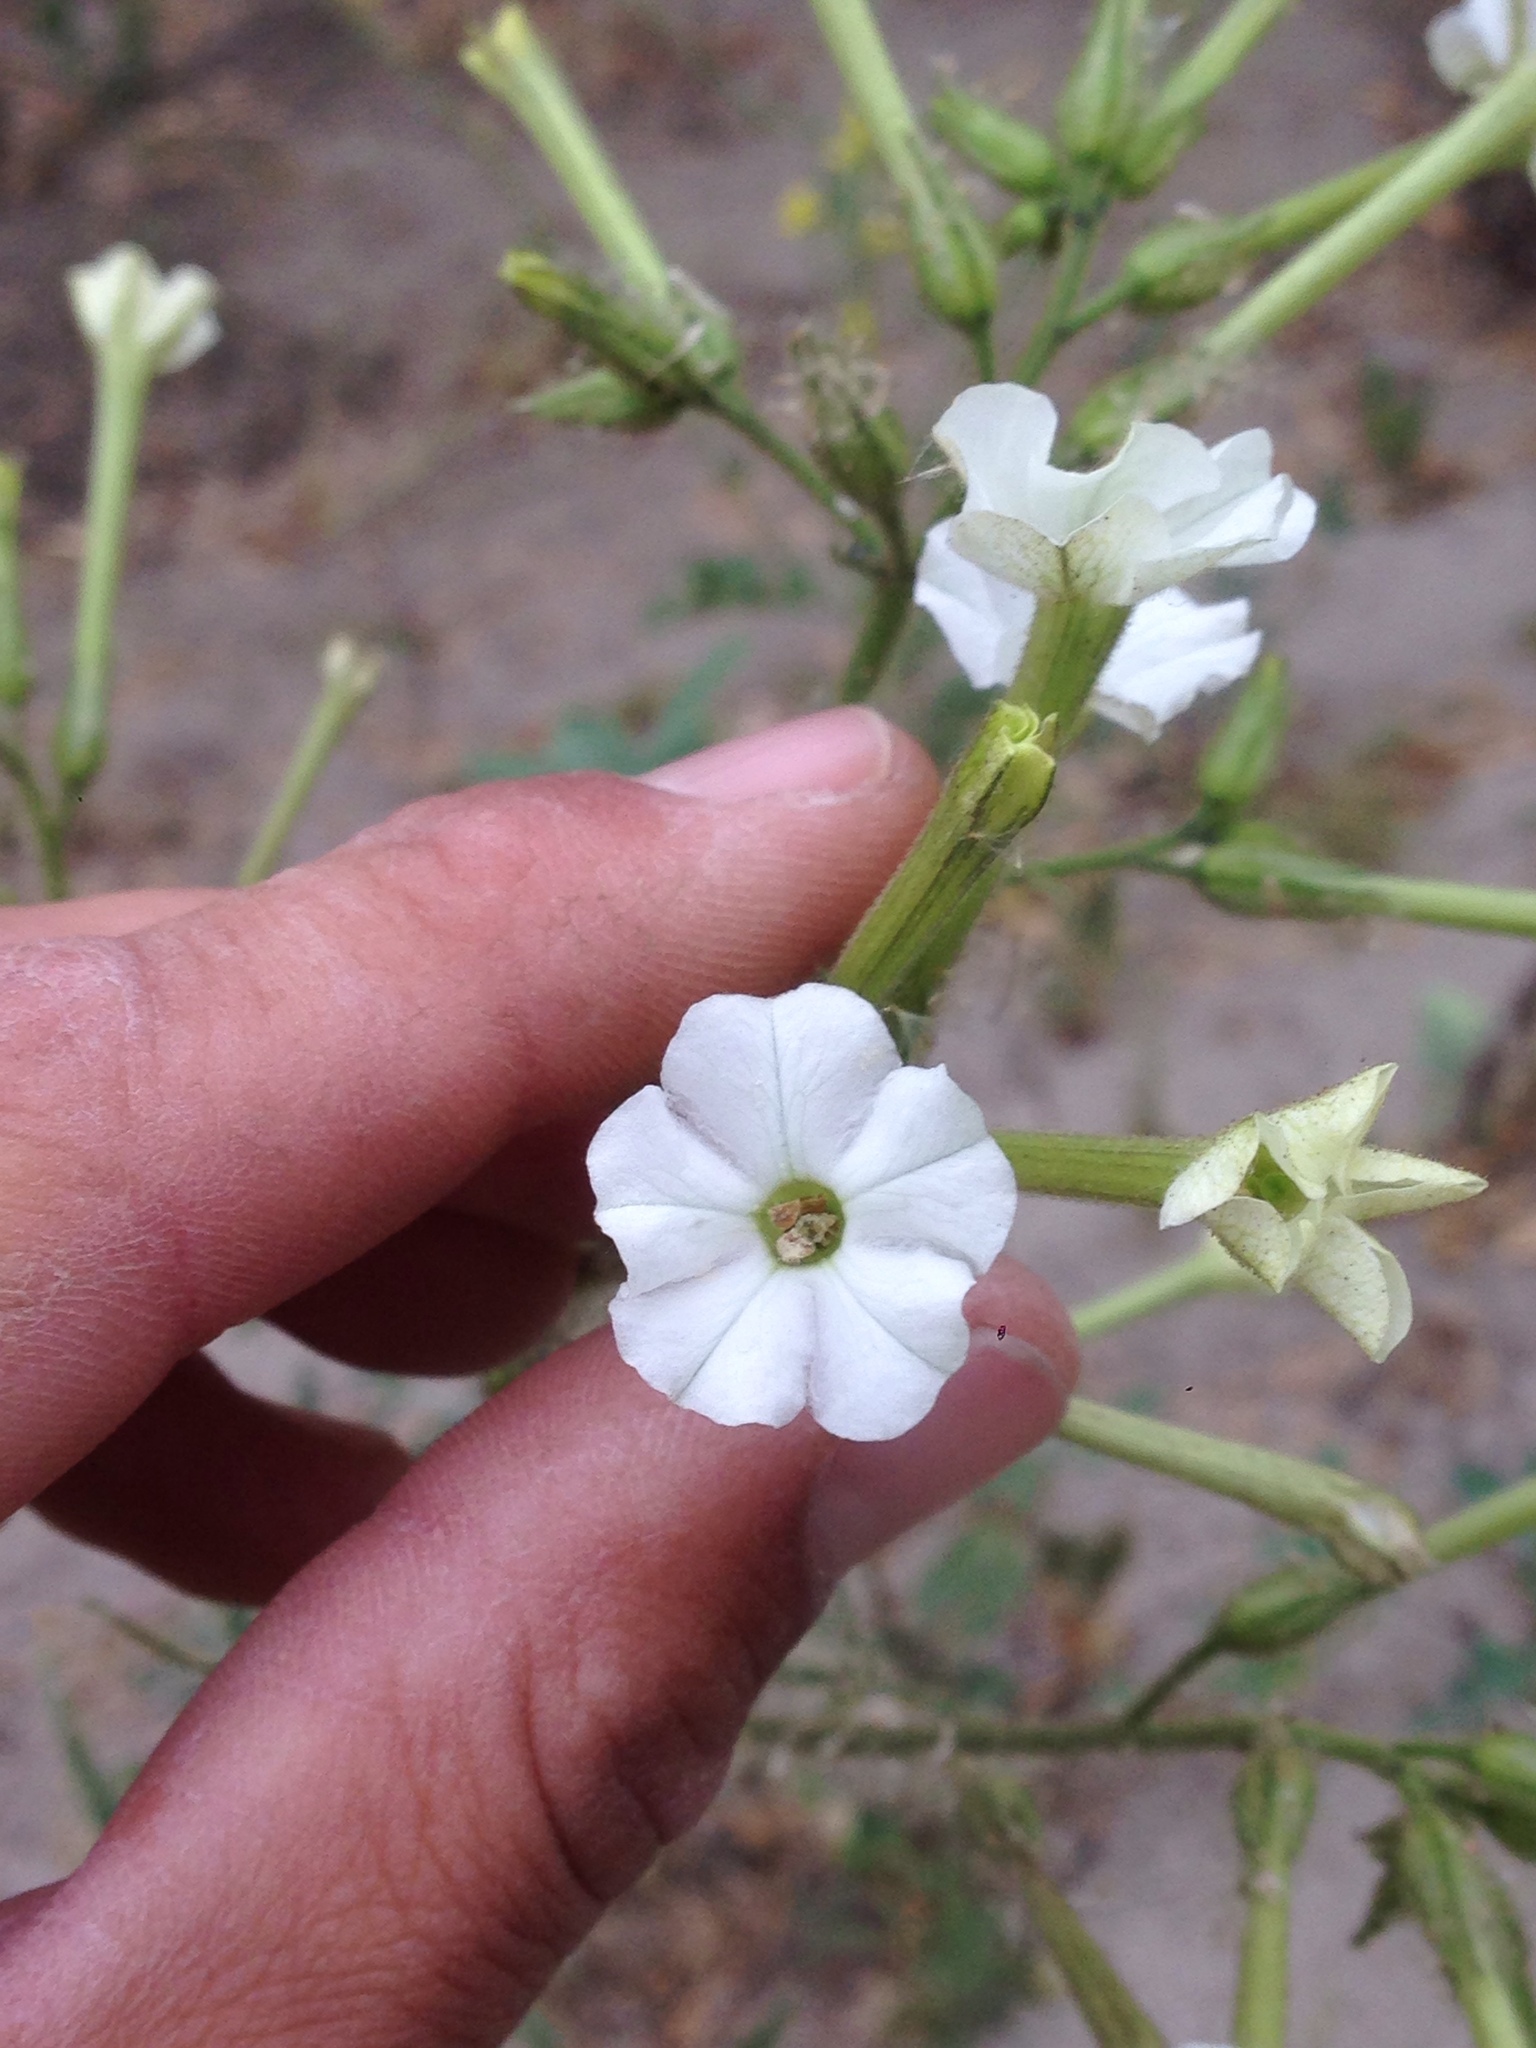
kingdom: Plantae
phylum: Tracheophyta
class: Magnoliopsida
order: Solanales
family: Solanaceae
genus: Nicotiana
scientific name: Nicotiana acuminata
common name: Manyflower tobacco
